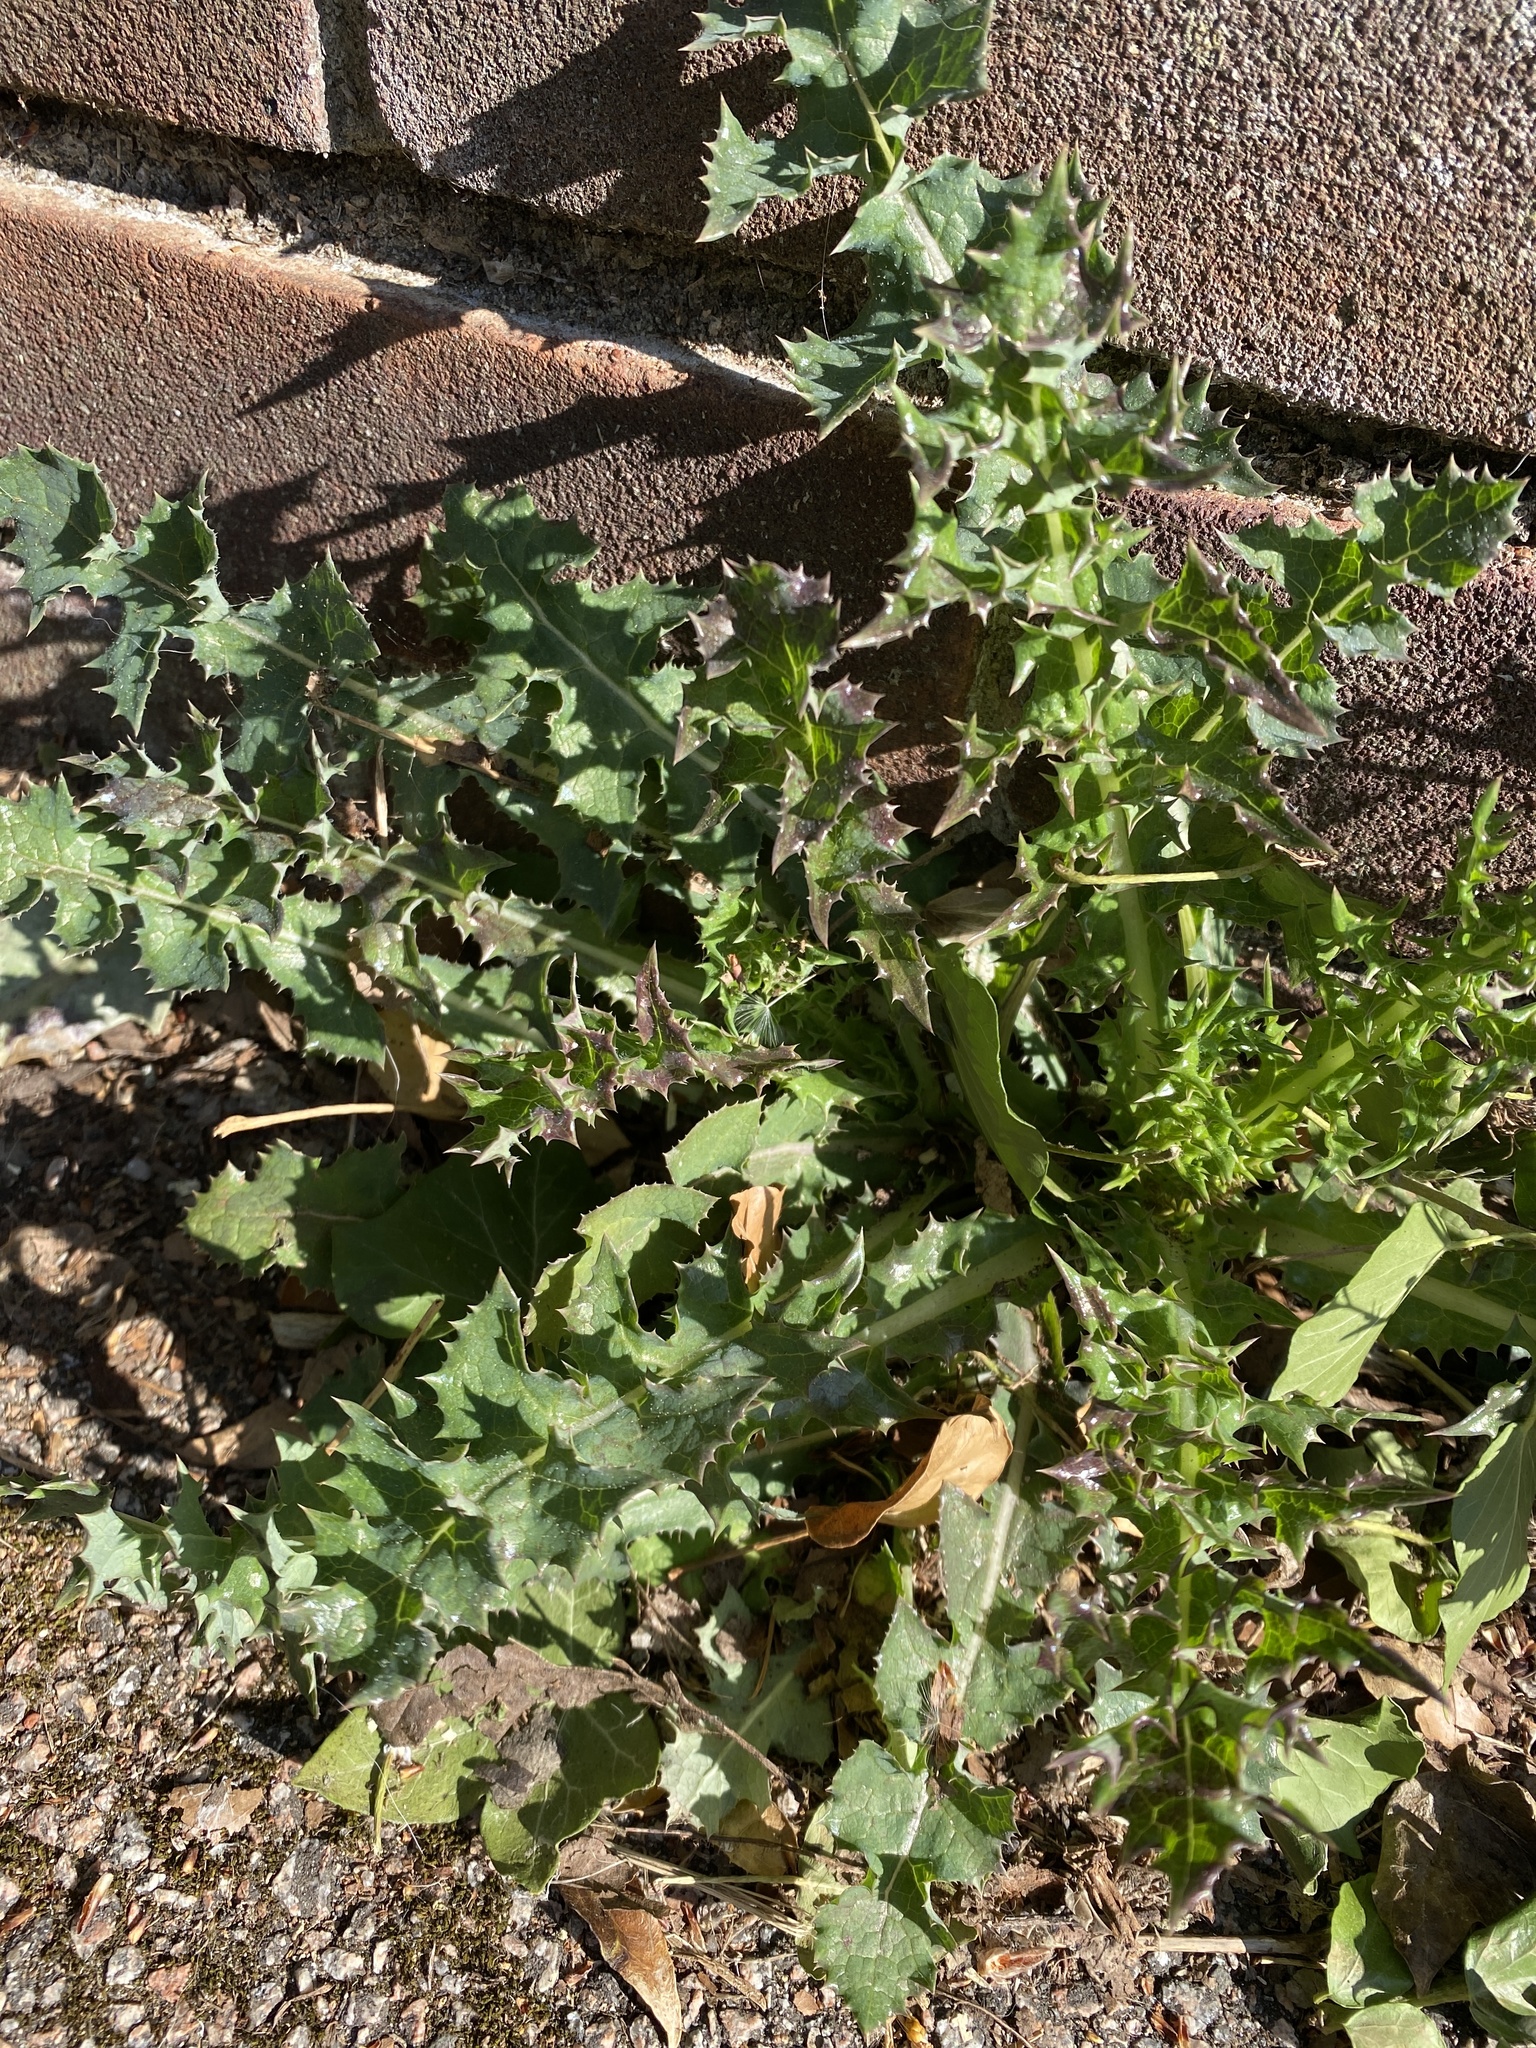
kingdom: Plantae
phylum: Tracheophyta
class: Magnoliopsida
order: Asterales
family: Asteraceae
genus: Sonchus
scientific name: Sonchus asper
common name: Prickly sow-thistle
